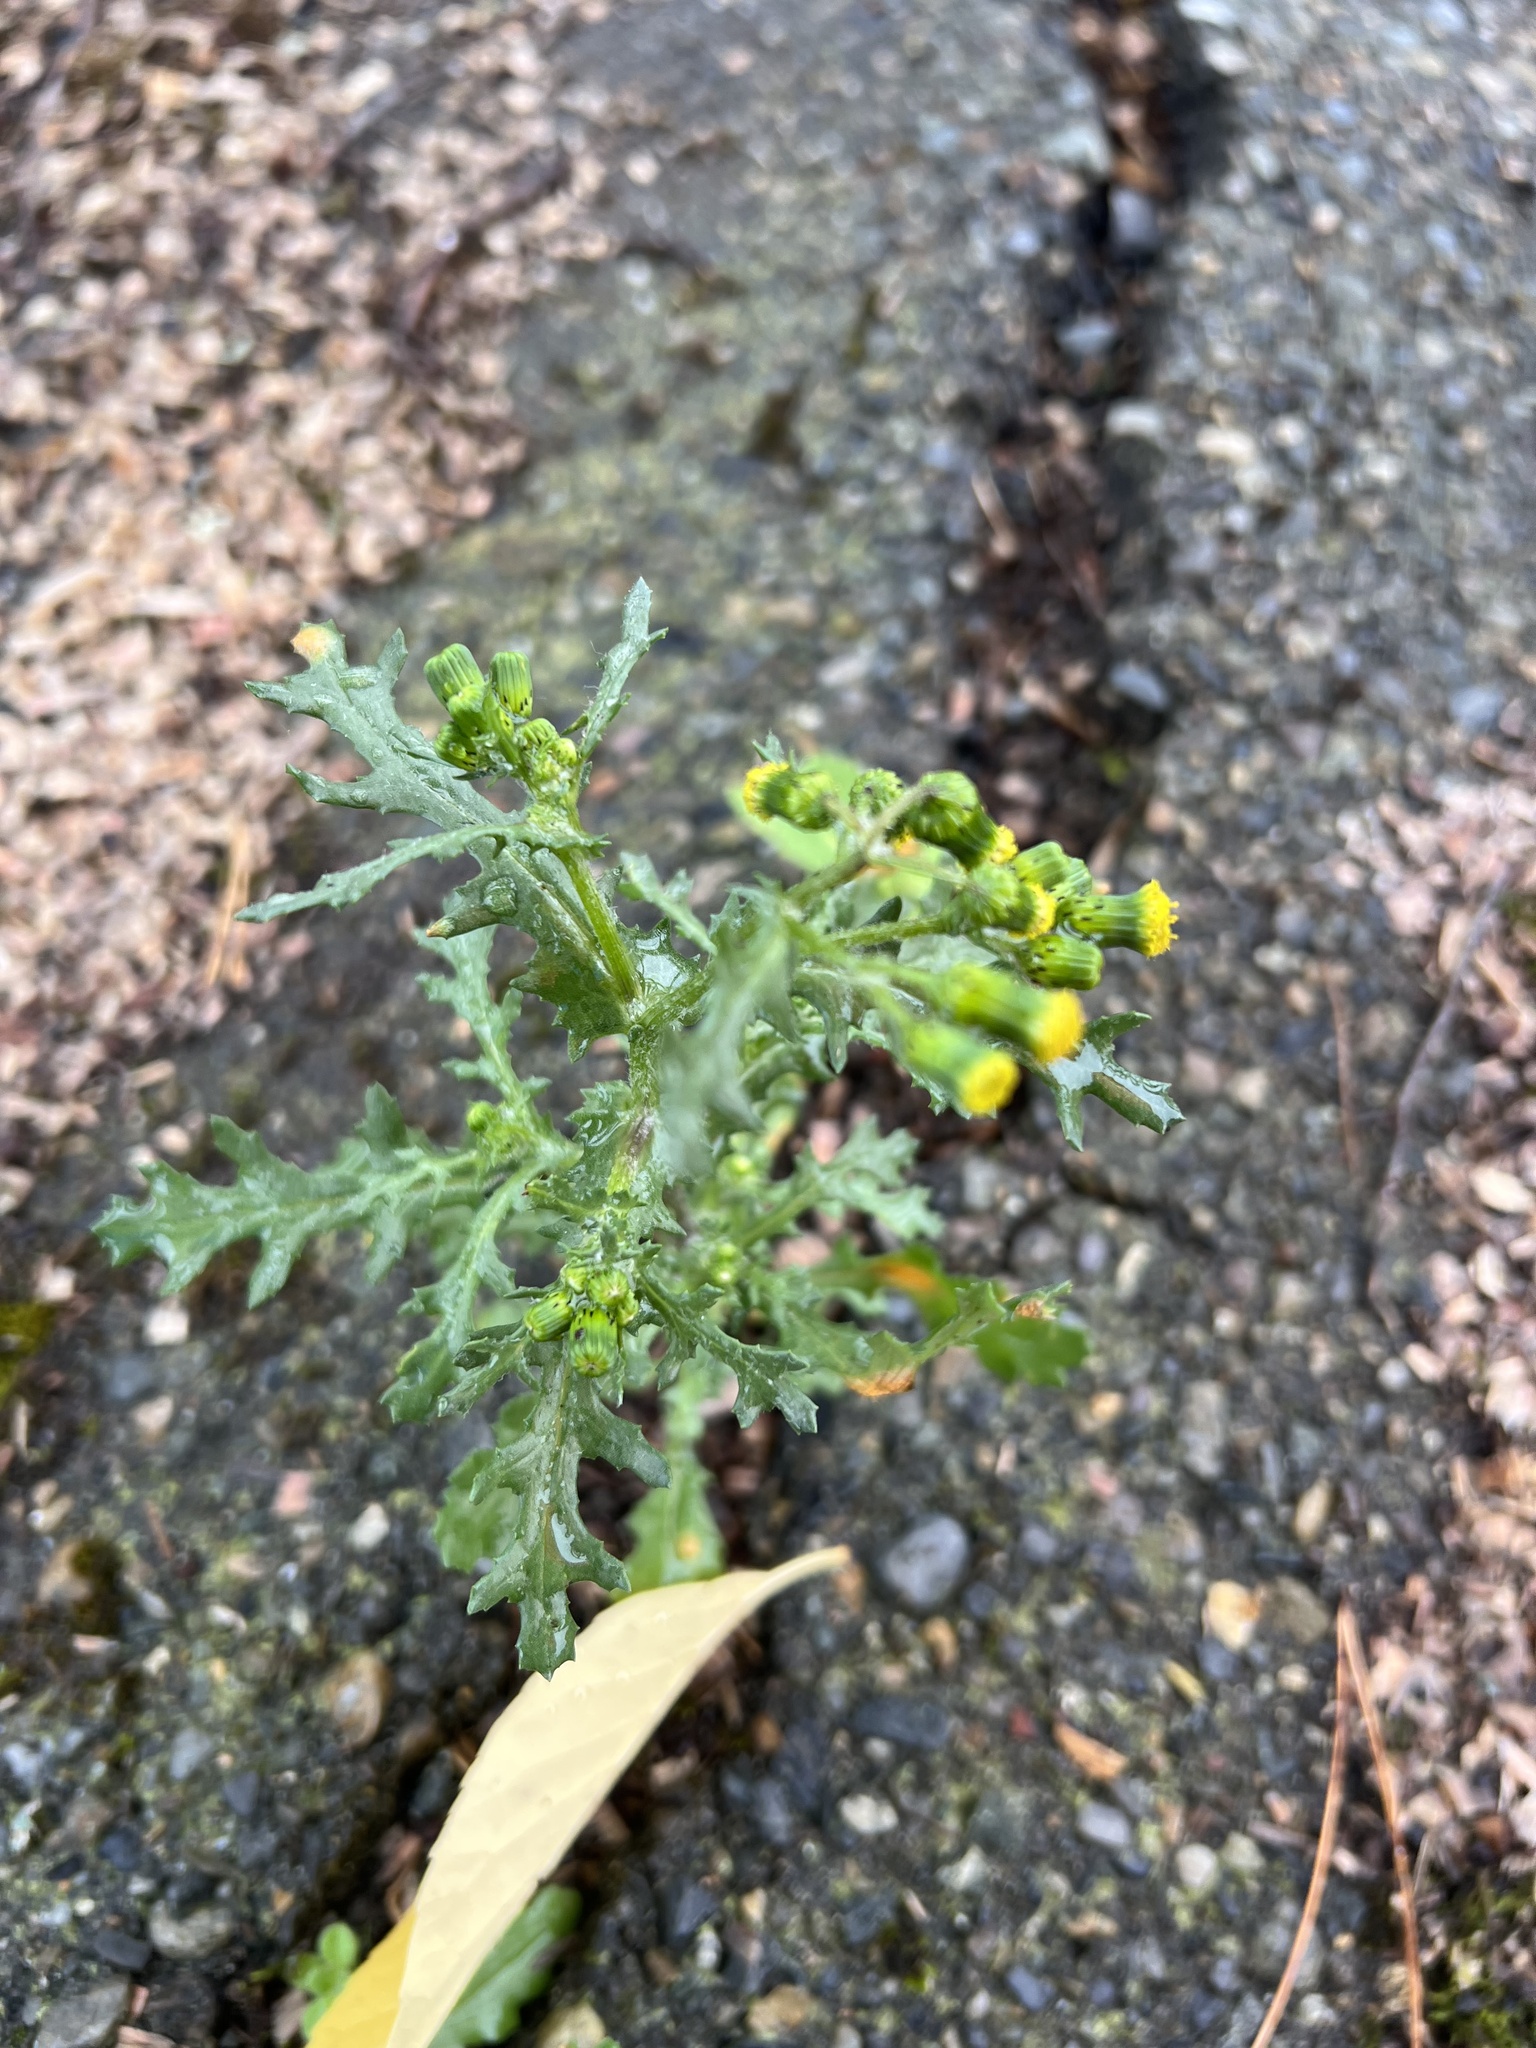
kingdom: Plantae
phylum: Tracheophyta
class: Magnoliopsida
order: Asterales
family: Asteraceae
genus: Senecio
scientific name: Senecio vulgaris
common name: Old-man-in-the-spring
